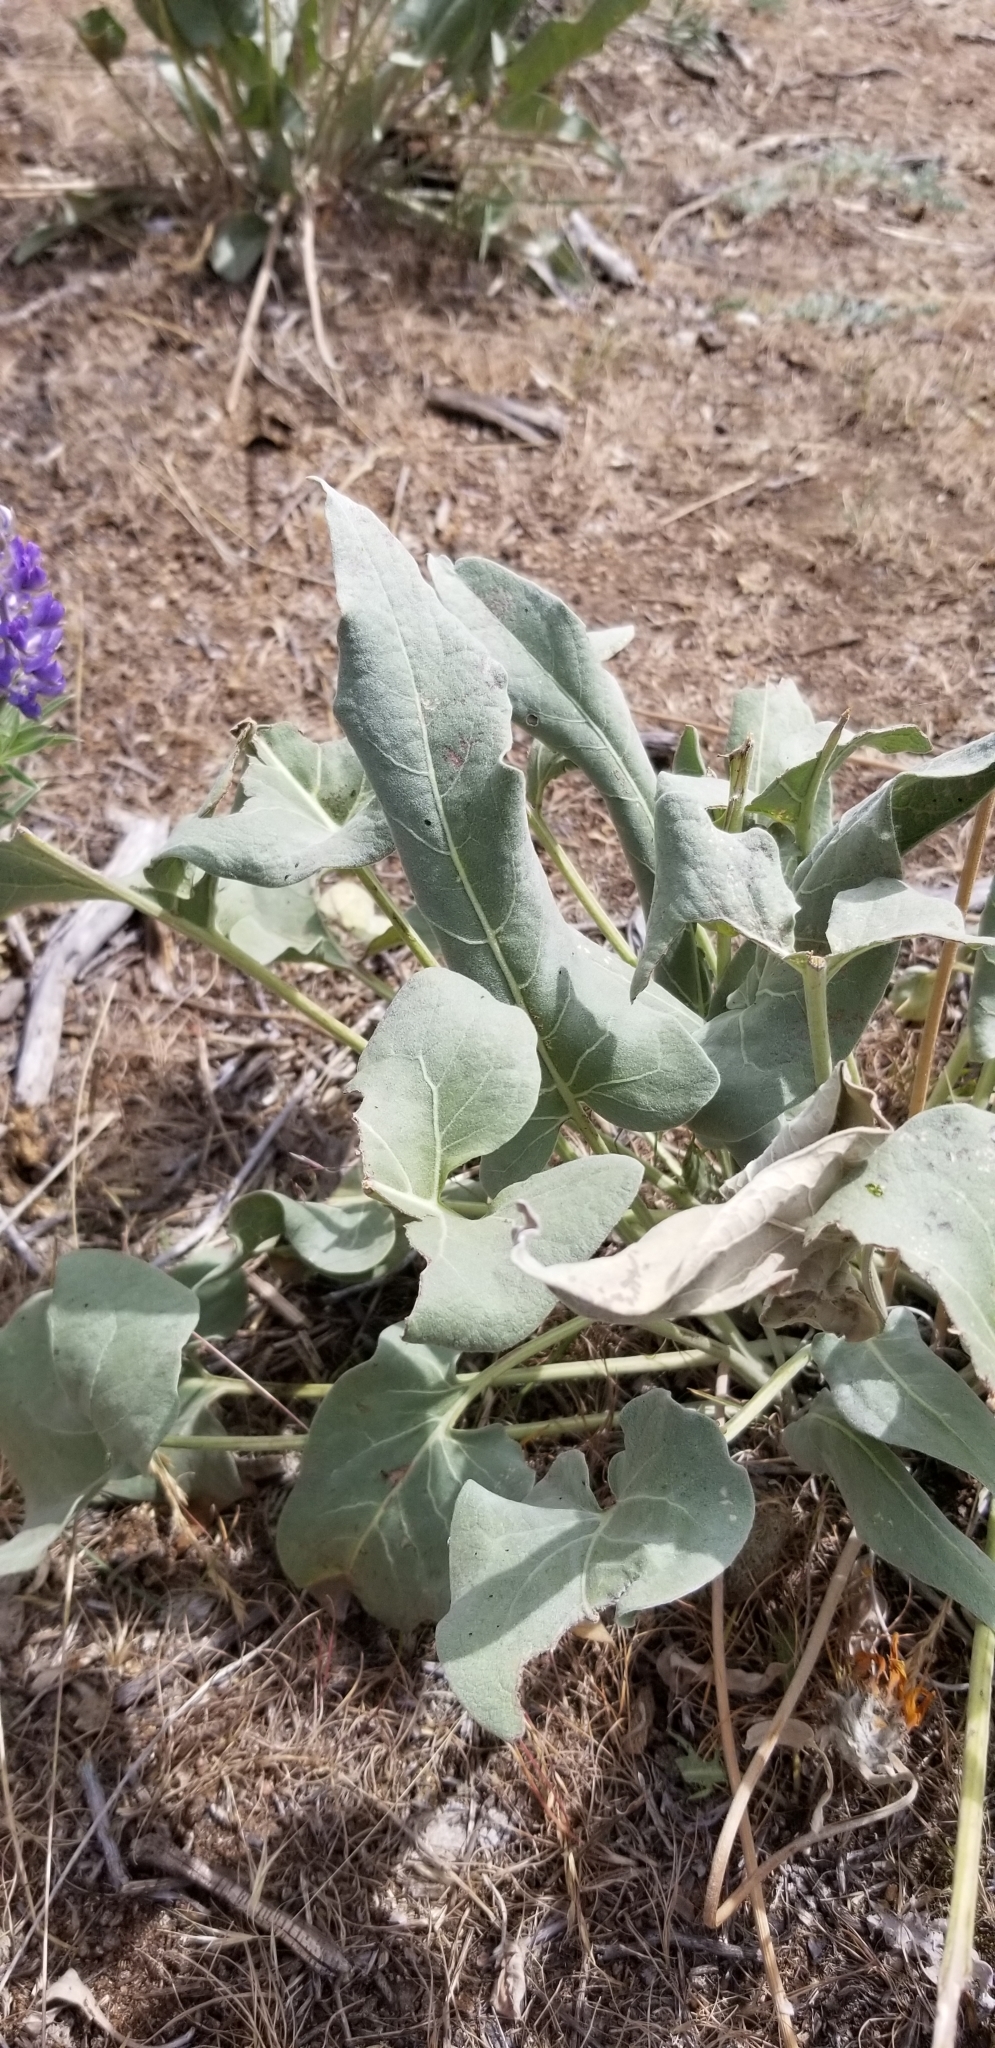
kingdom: Plantae
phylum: Tracheophyta
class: Magnoliopsida
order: Asterales
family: Asteraceae
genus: Wyethia
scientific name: Wyethia sagittata
